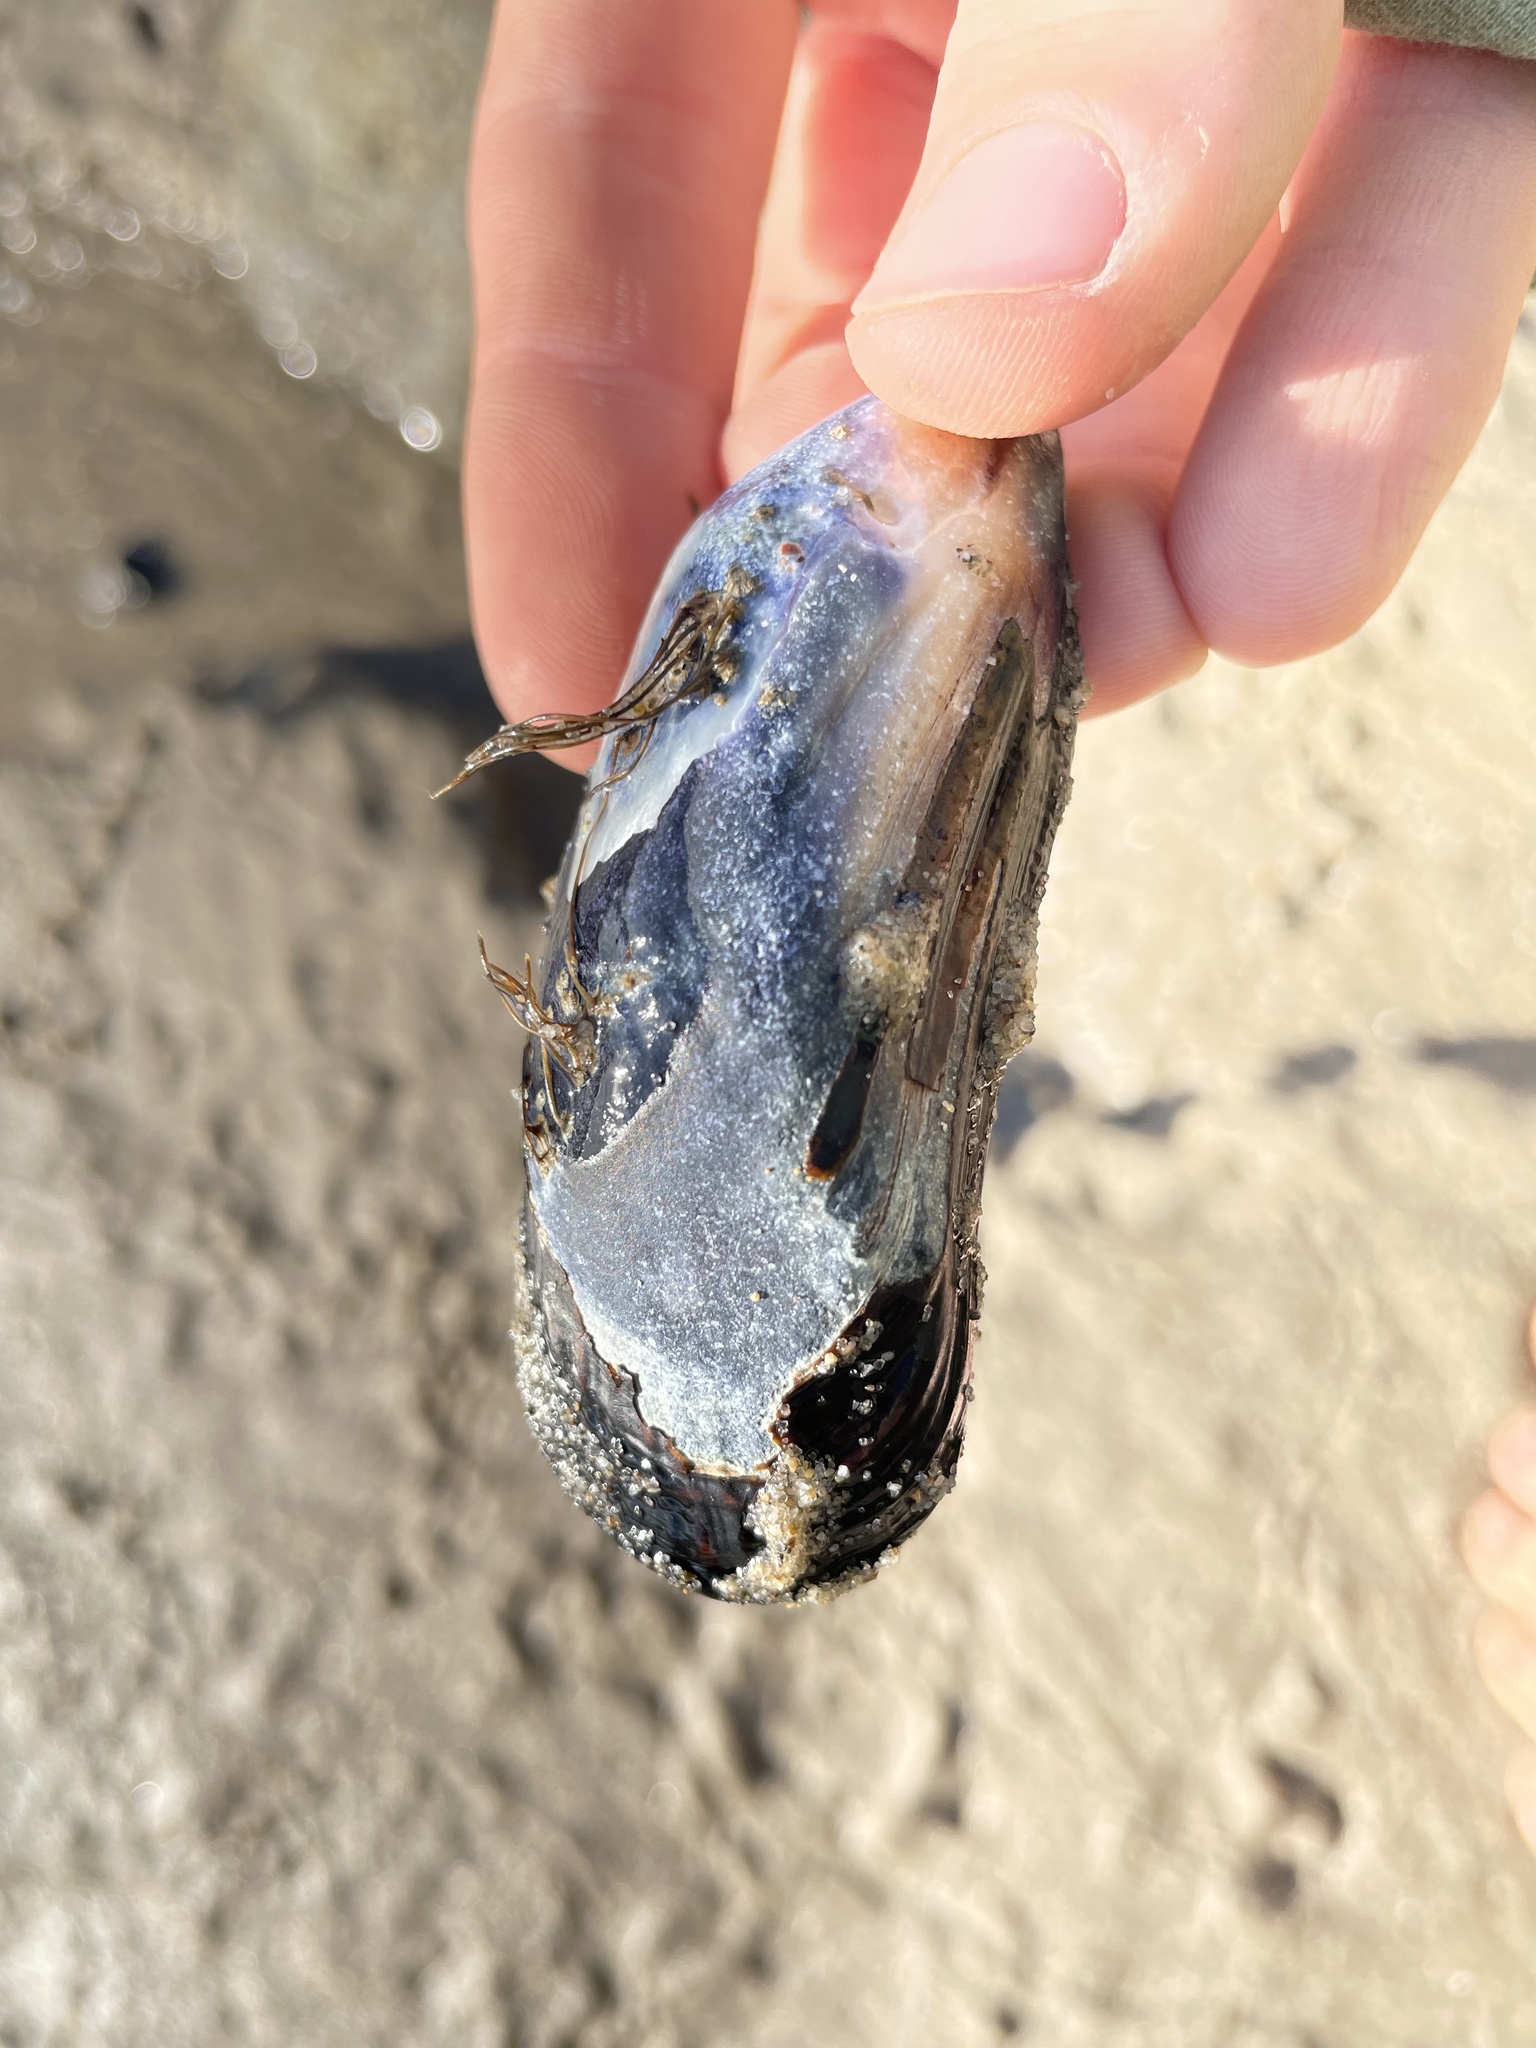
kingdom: Animalia
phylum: Mollusca
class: Bivalvia
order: Mytilida
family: Mytilidae
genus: Mytilus
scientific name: Mytilus californianus
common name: California mussel
